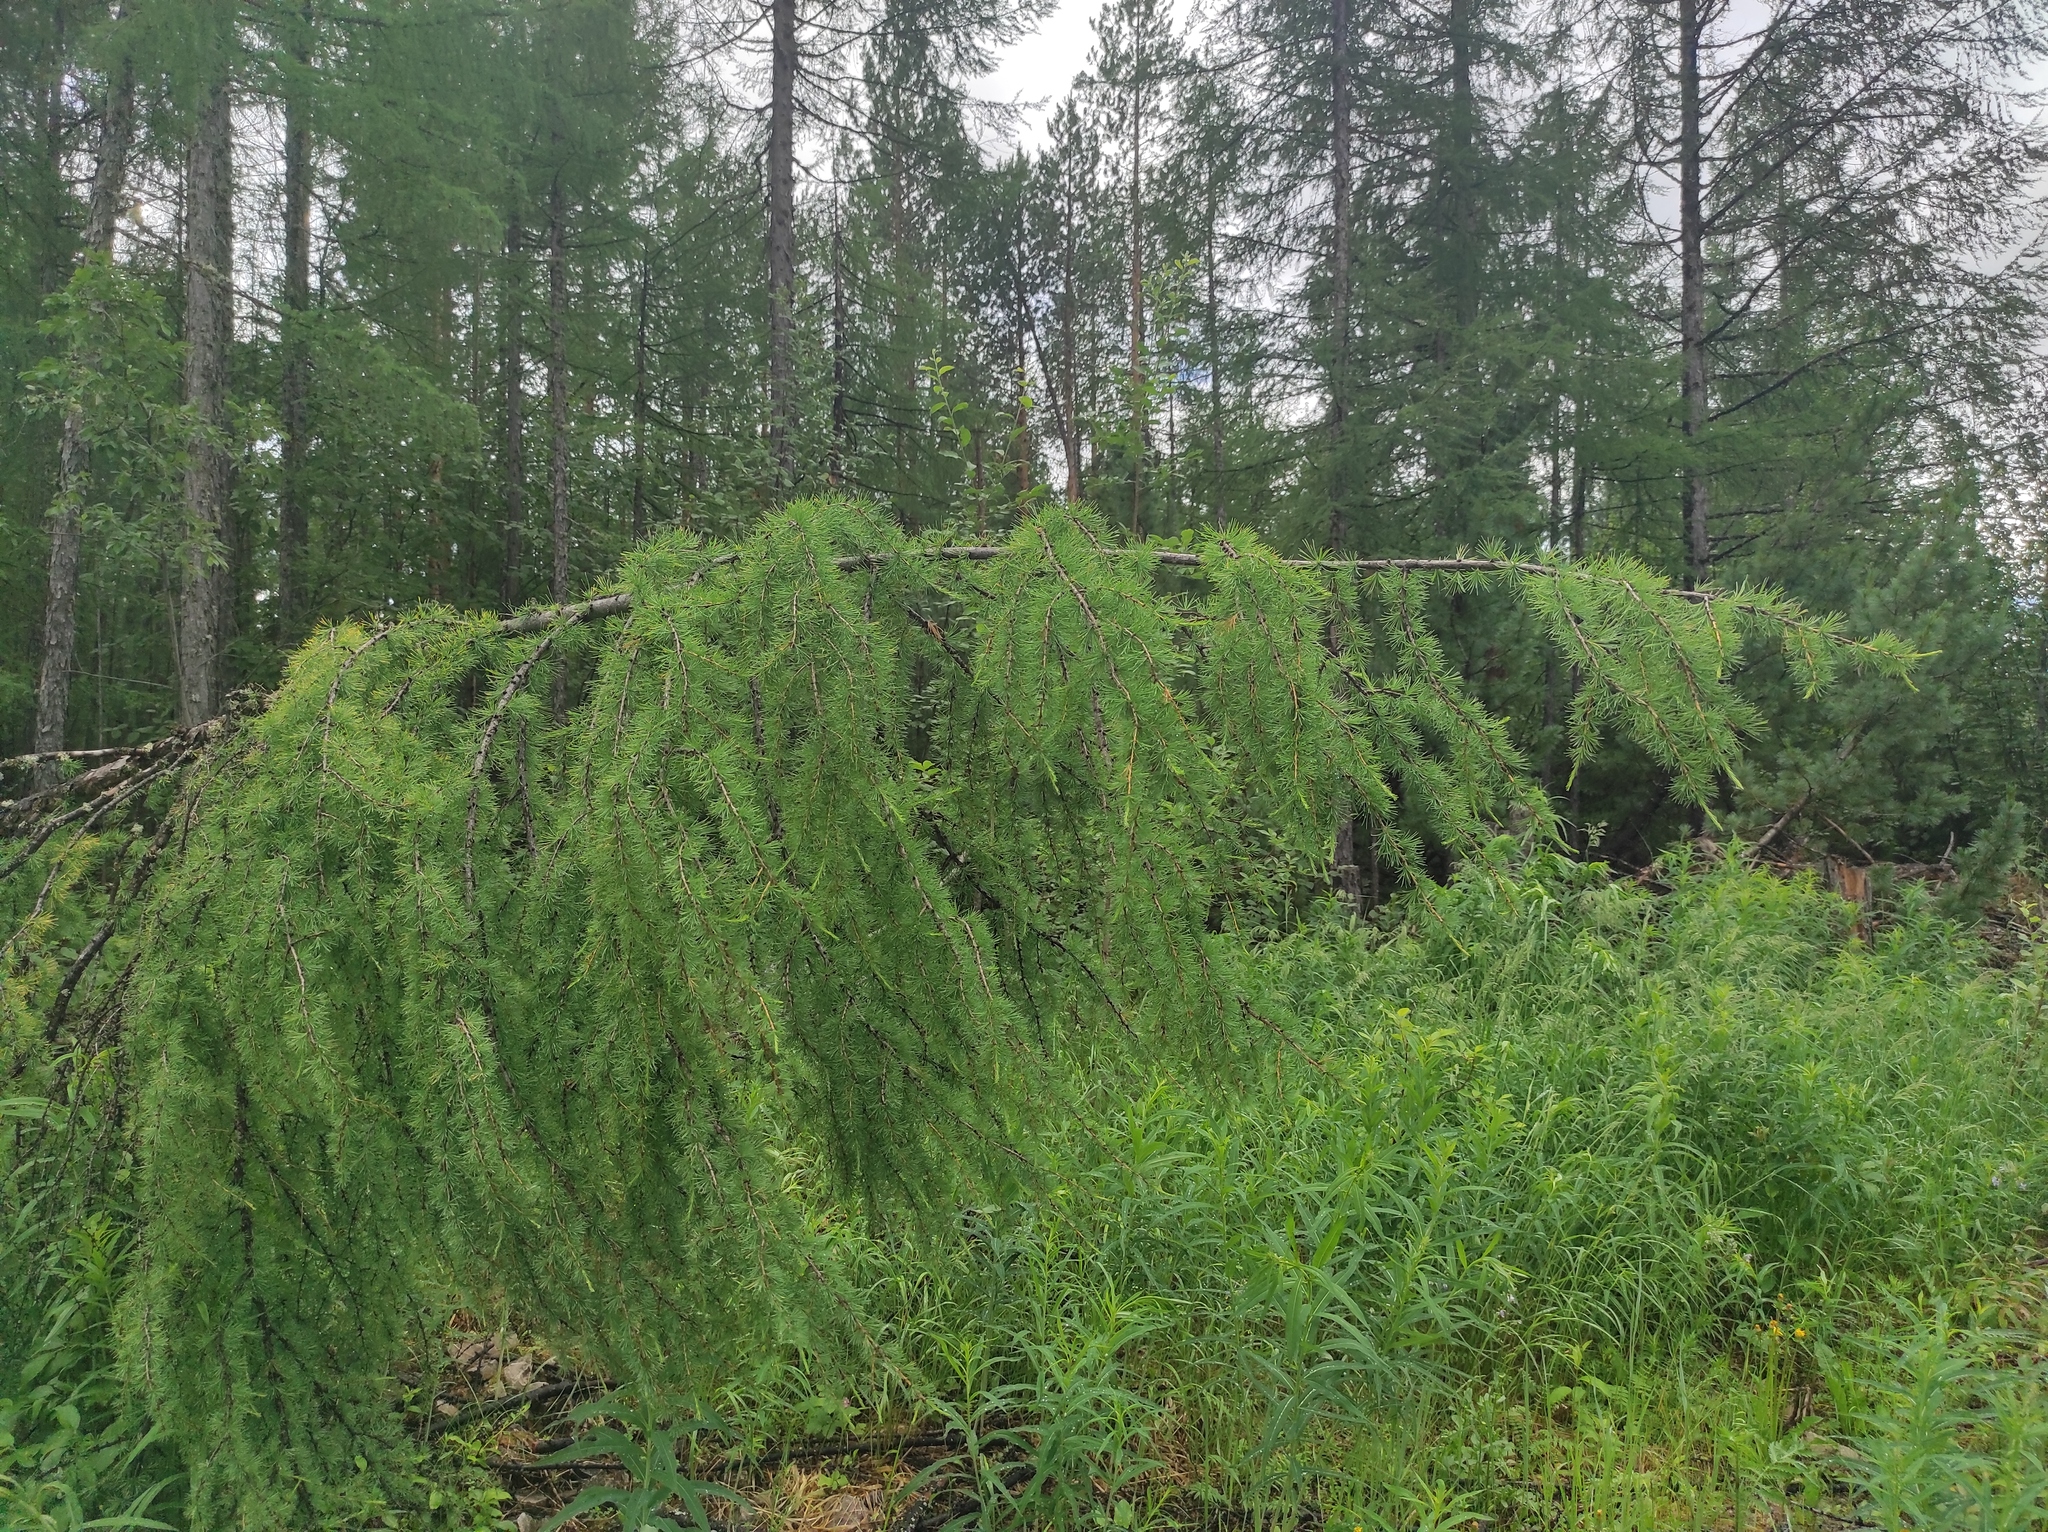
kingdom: Plantae
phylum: Tracheophyta
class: Pinopsida
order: Pinales
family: Pinaceae
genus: Larix
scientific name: Larix gmelinii
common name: Dahurian larch
